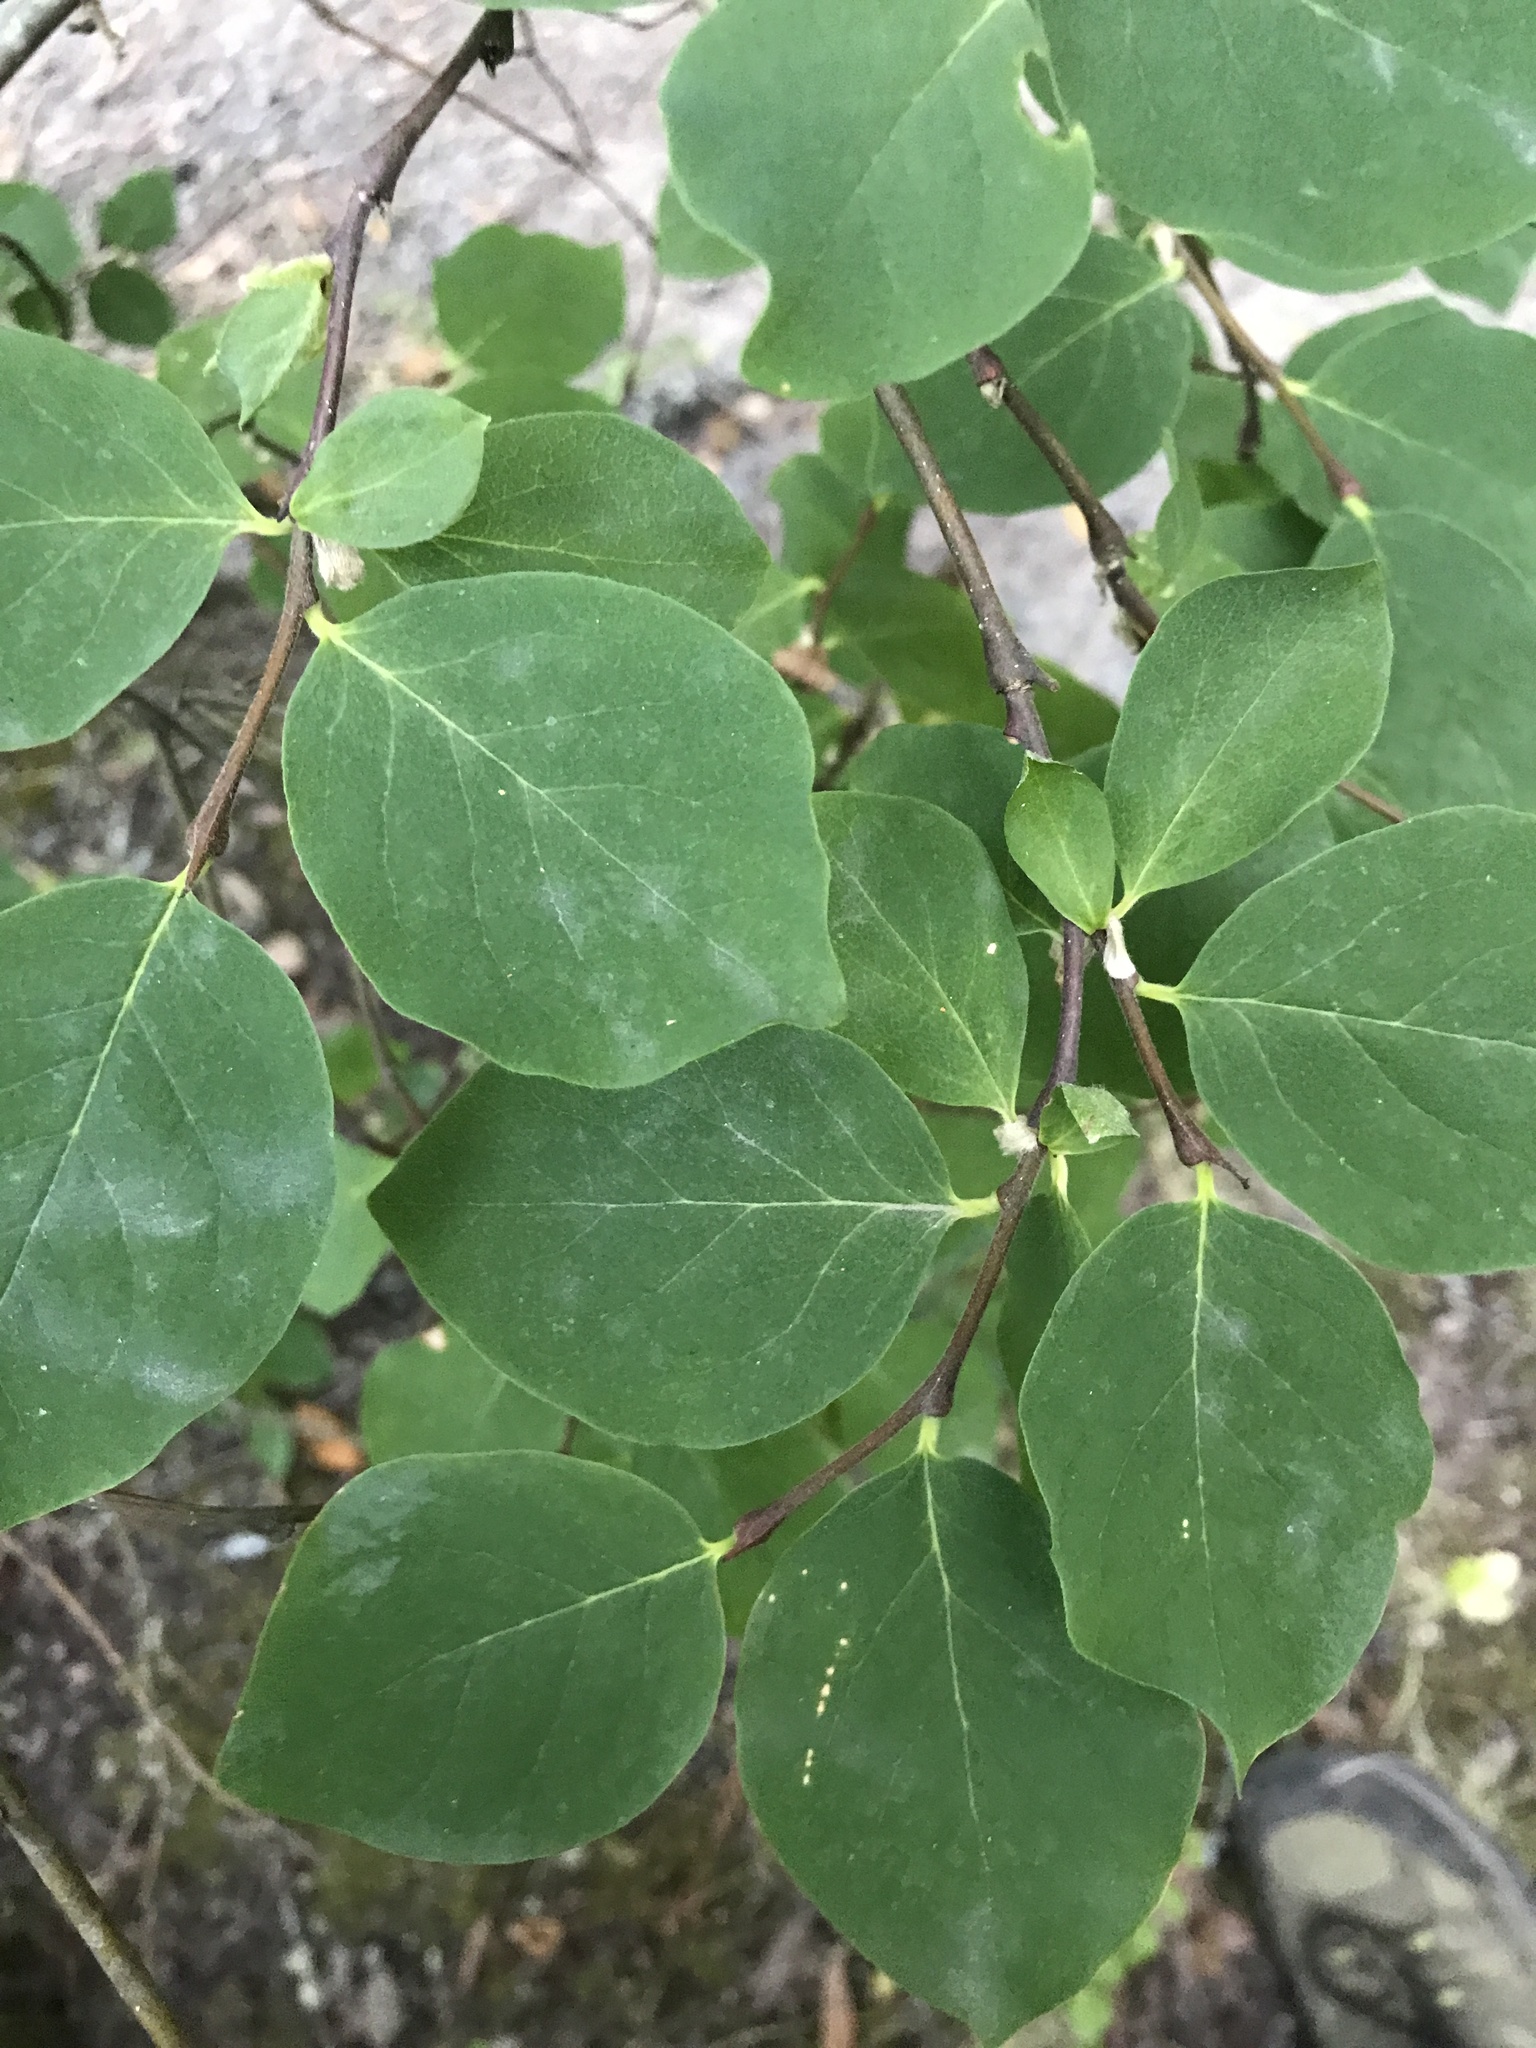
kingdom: Plantae
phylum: Tracheophyta
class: Magnoliopsida
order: Malvales
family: Thymelaeaceae
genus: Dirca
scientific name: Dirca occidentalis
